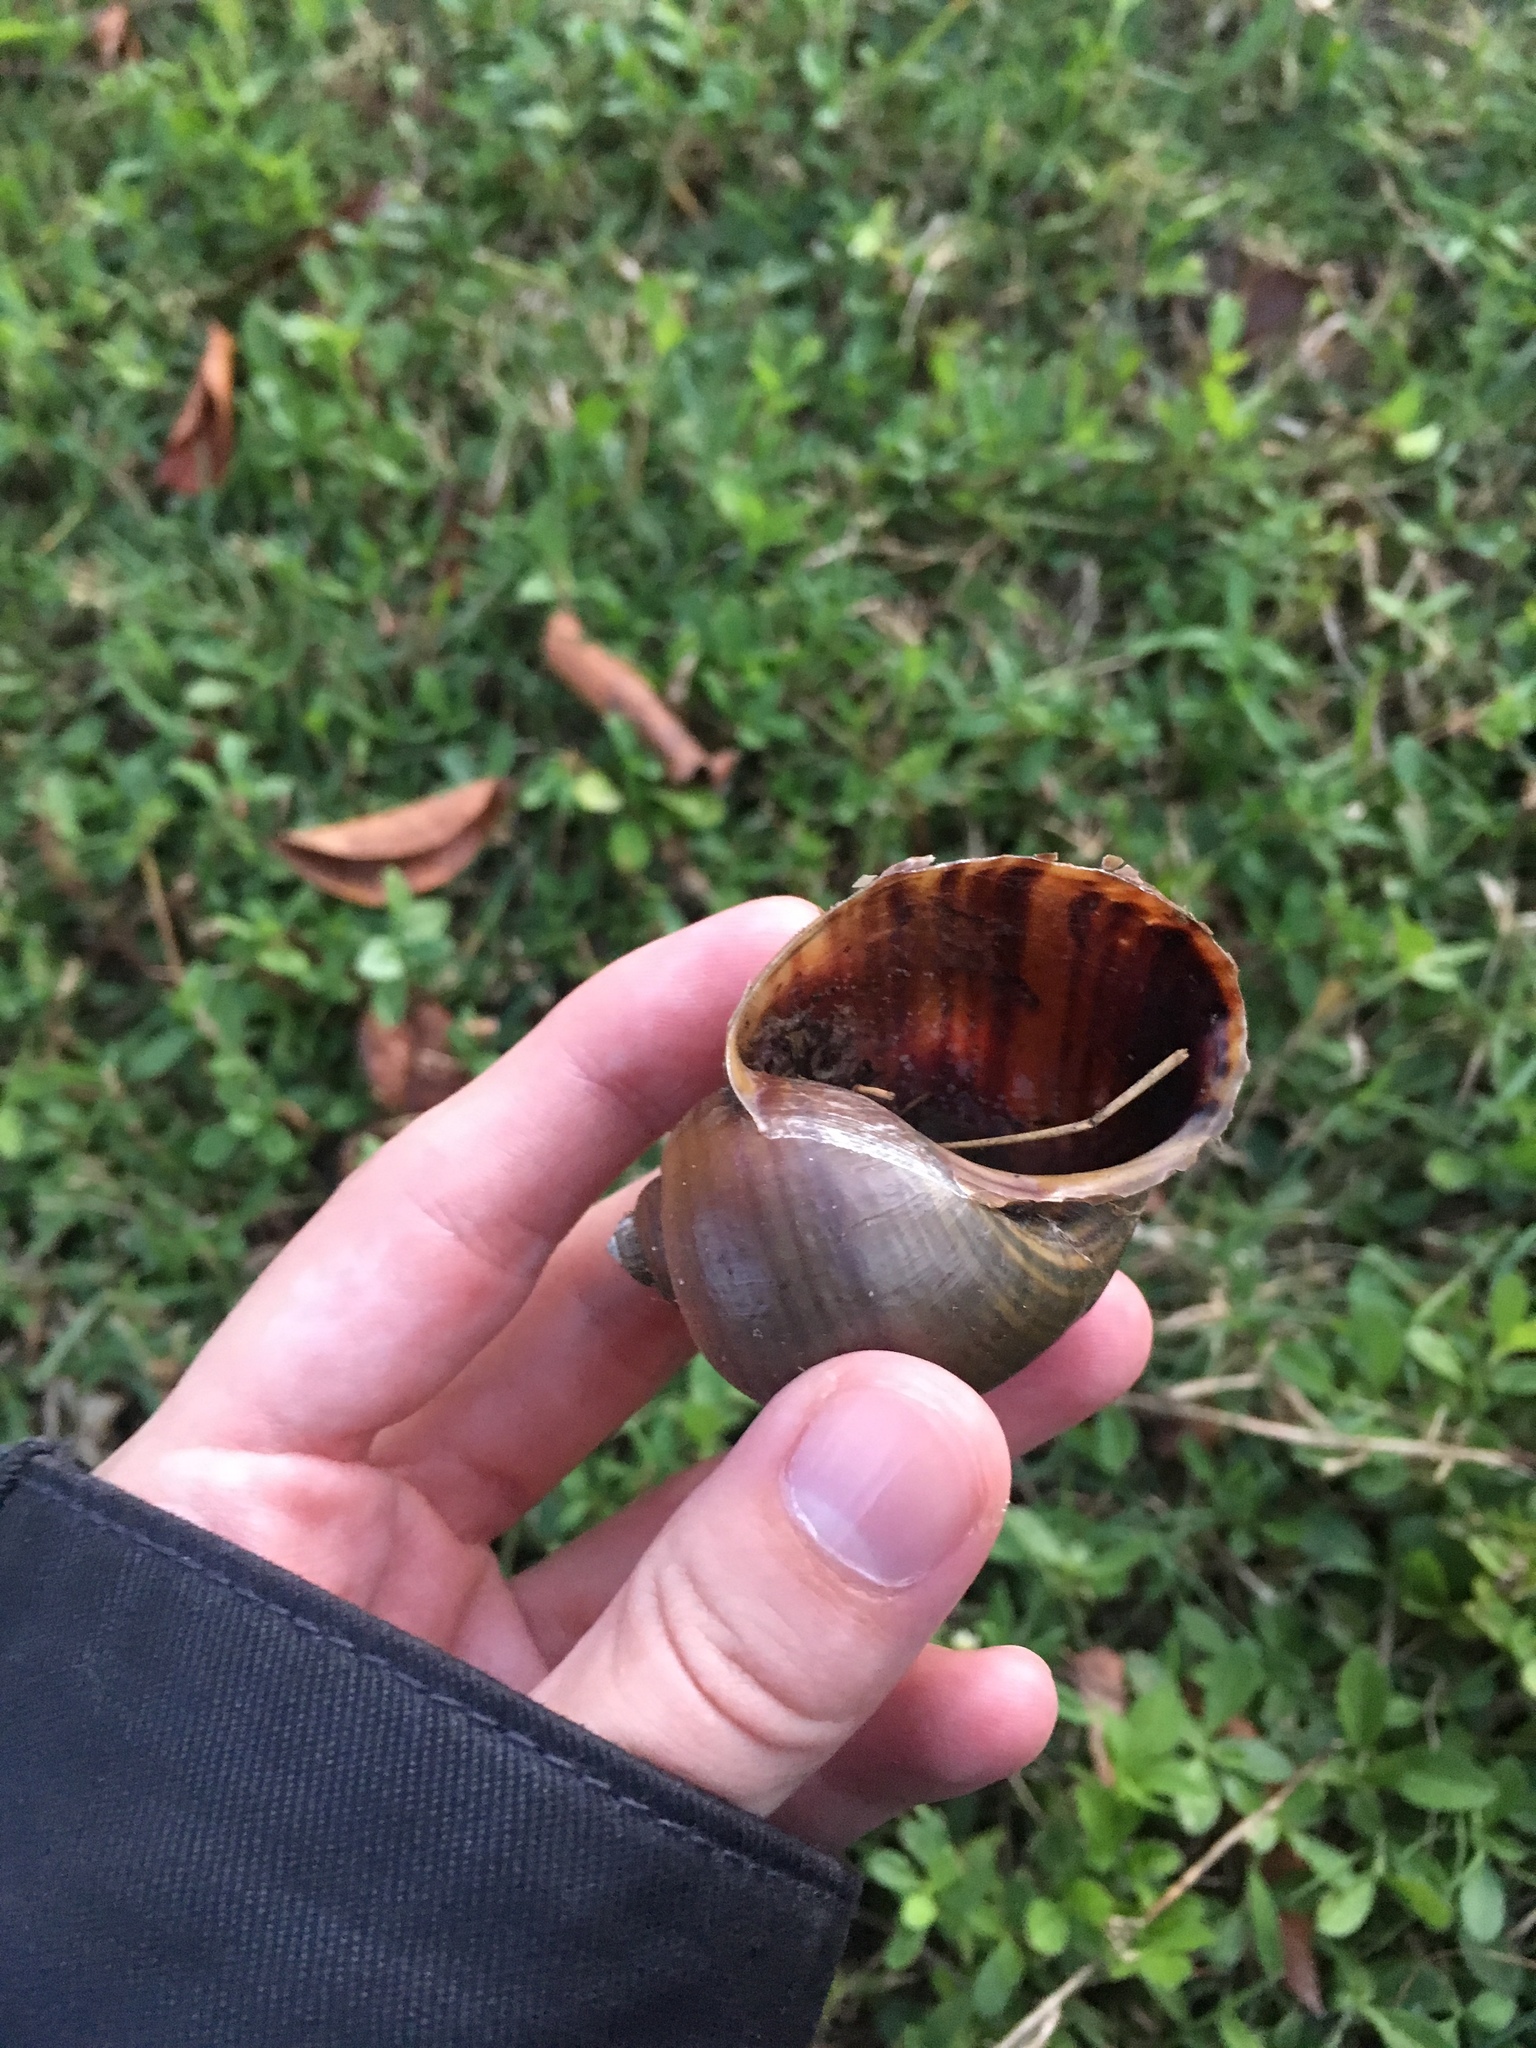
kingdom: Animalia
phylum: Mollusca
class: Gastropoda
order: Architaenioglossa
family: Ampullariidae
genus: Pomacea
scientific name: Pomacea maculata
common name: Giant applesnail
